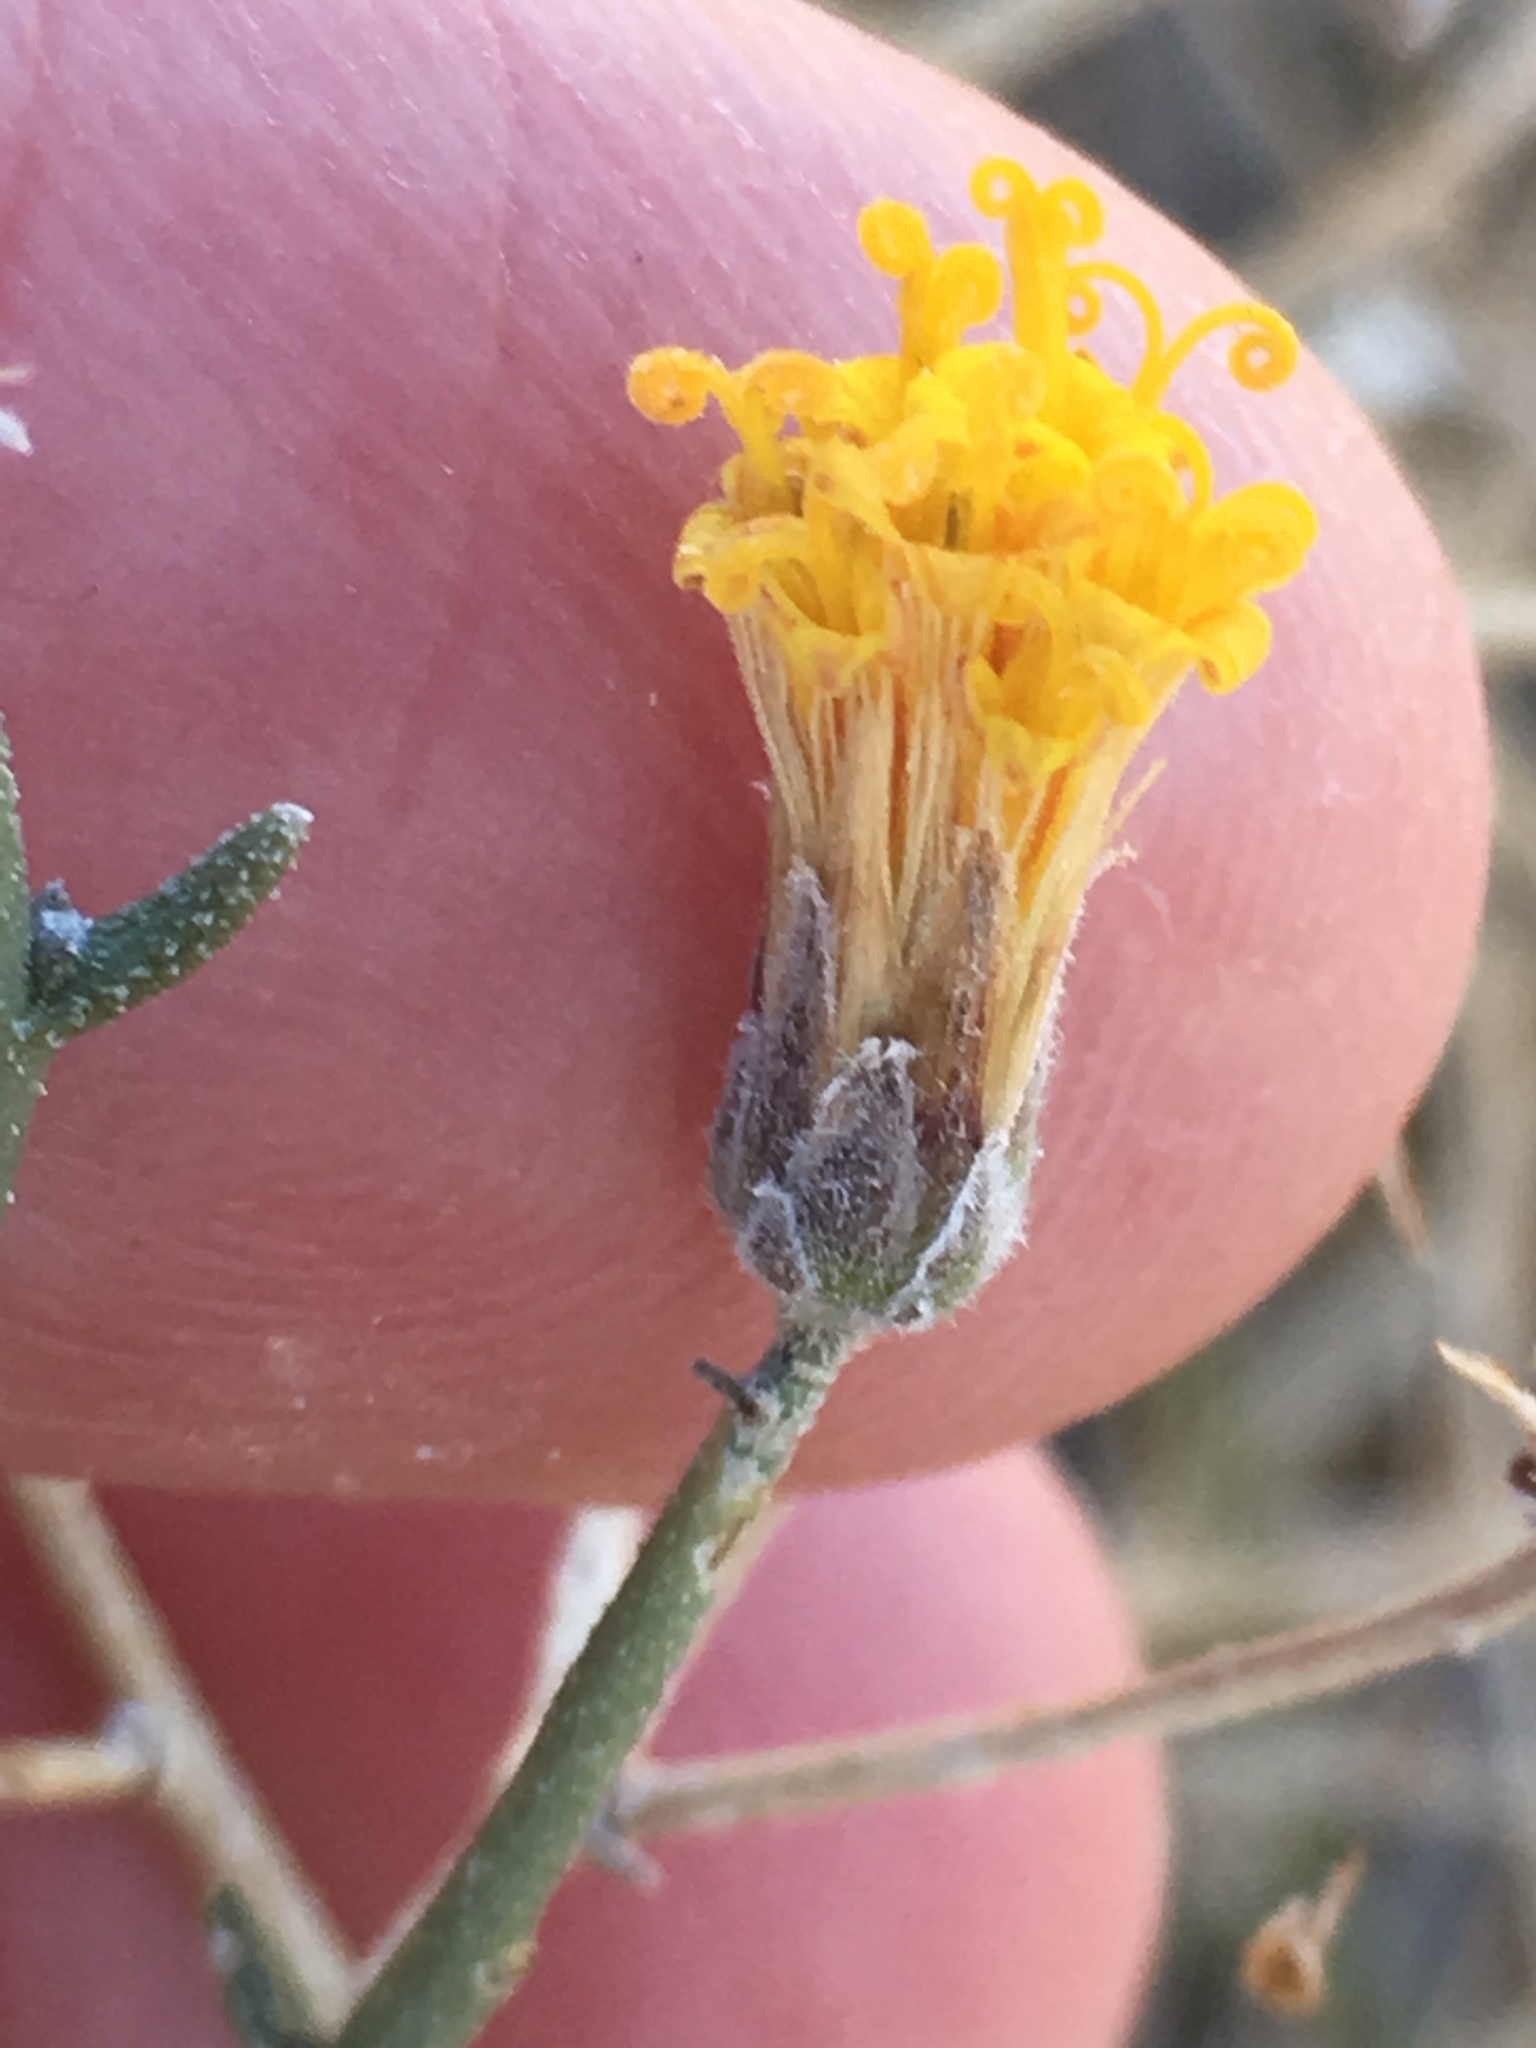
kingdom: Plantae
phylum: Tracheophyta
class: Magnoliopsida
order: Asterales
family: Asteraceae
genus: Bebbia
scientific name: Bebbia juncea
